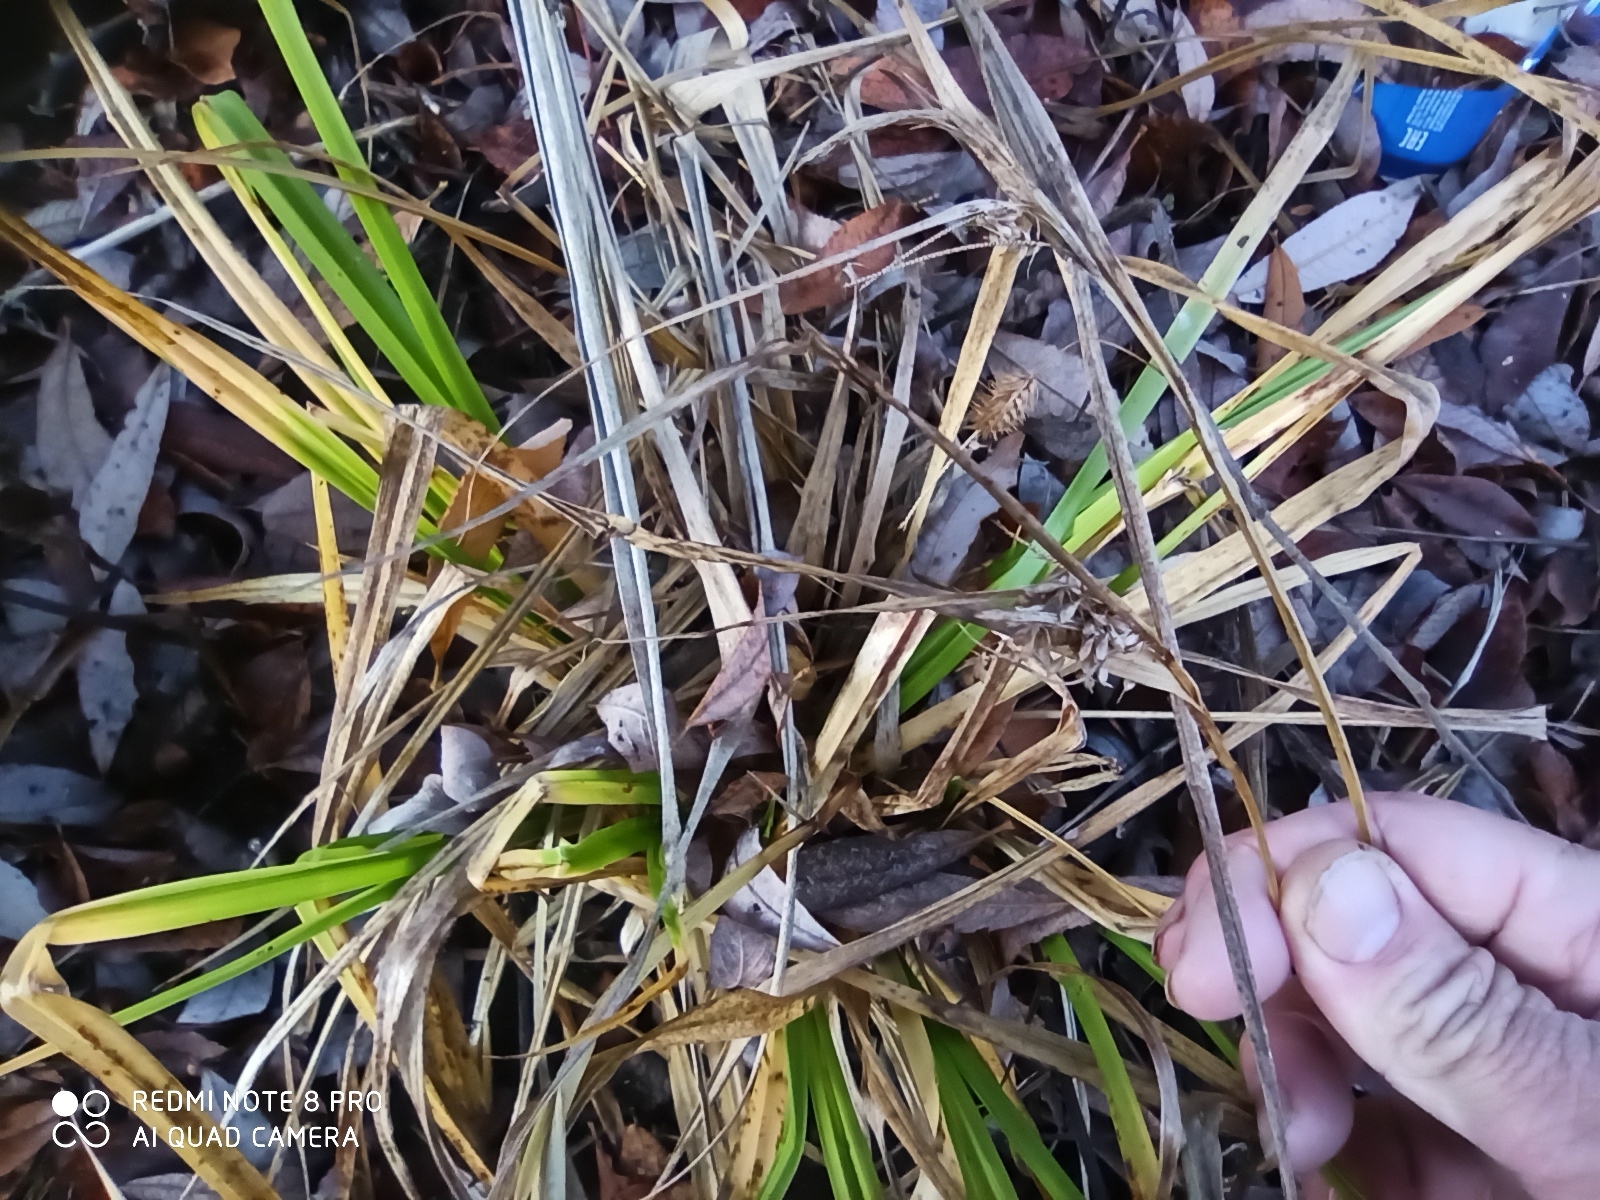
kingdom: Plantae
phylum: Tracheophyta
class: Liliopsida
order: Poales
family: Cyperaceae
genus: Carex
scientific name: Carex pseudocyperus
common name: Cyperus sedge
